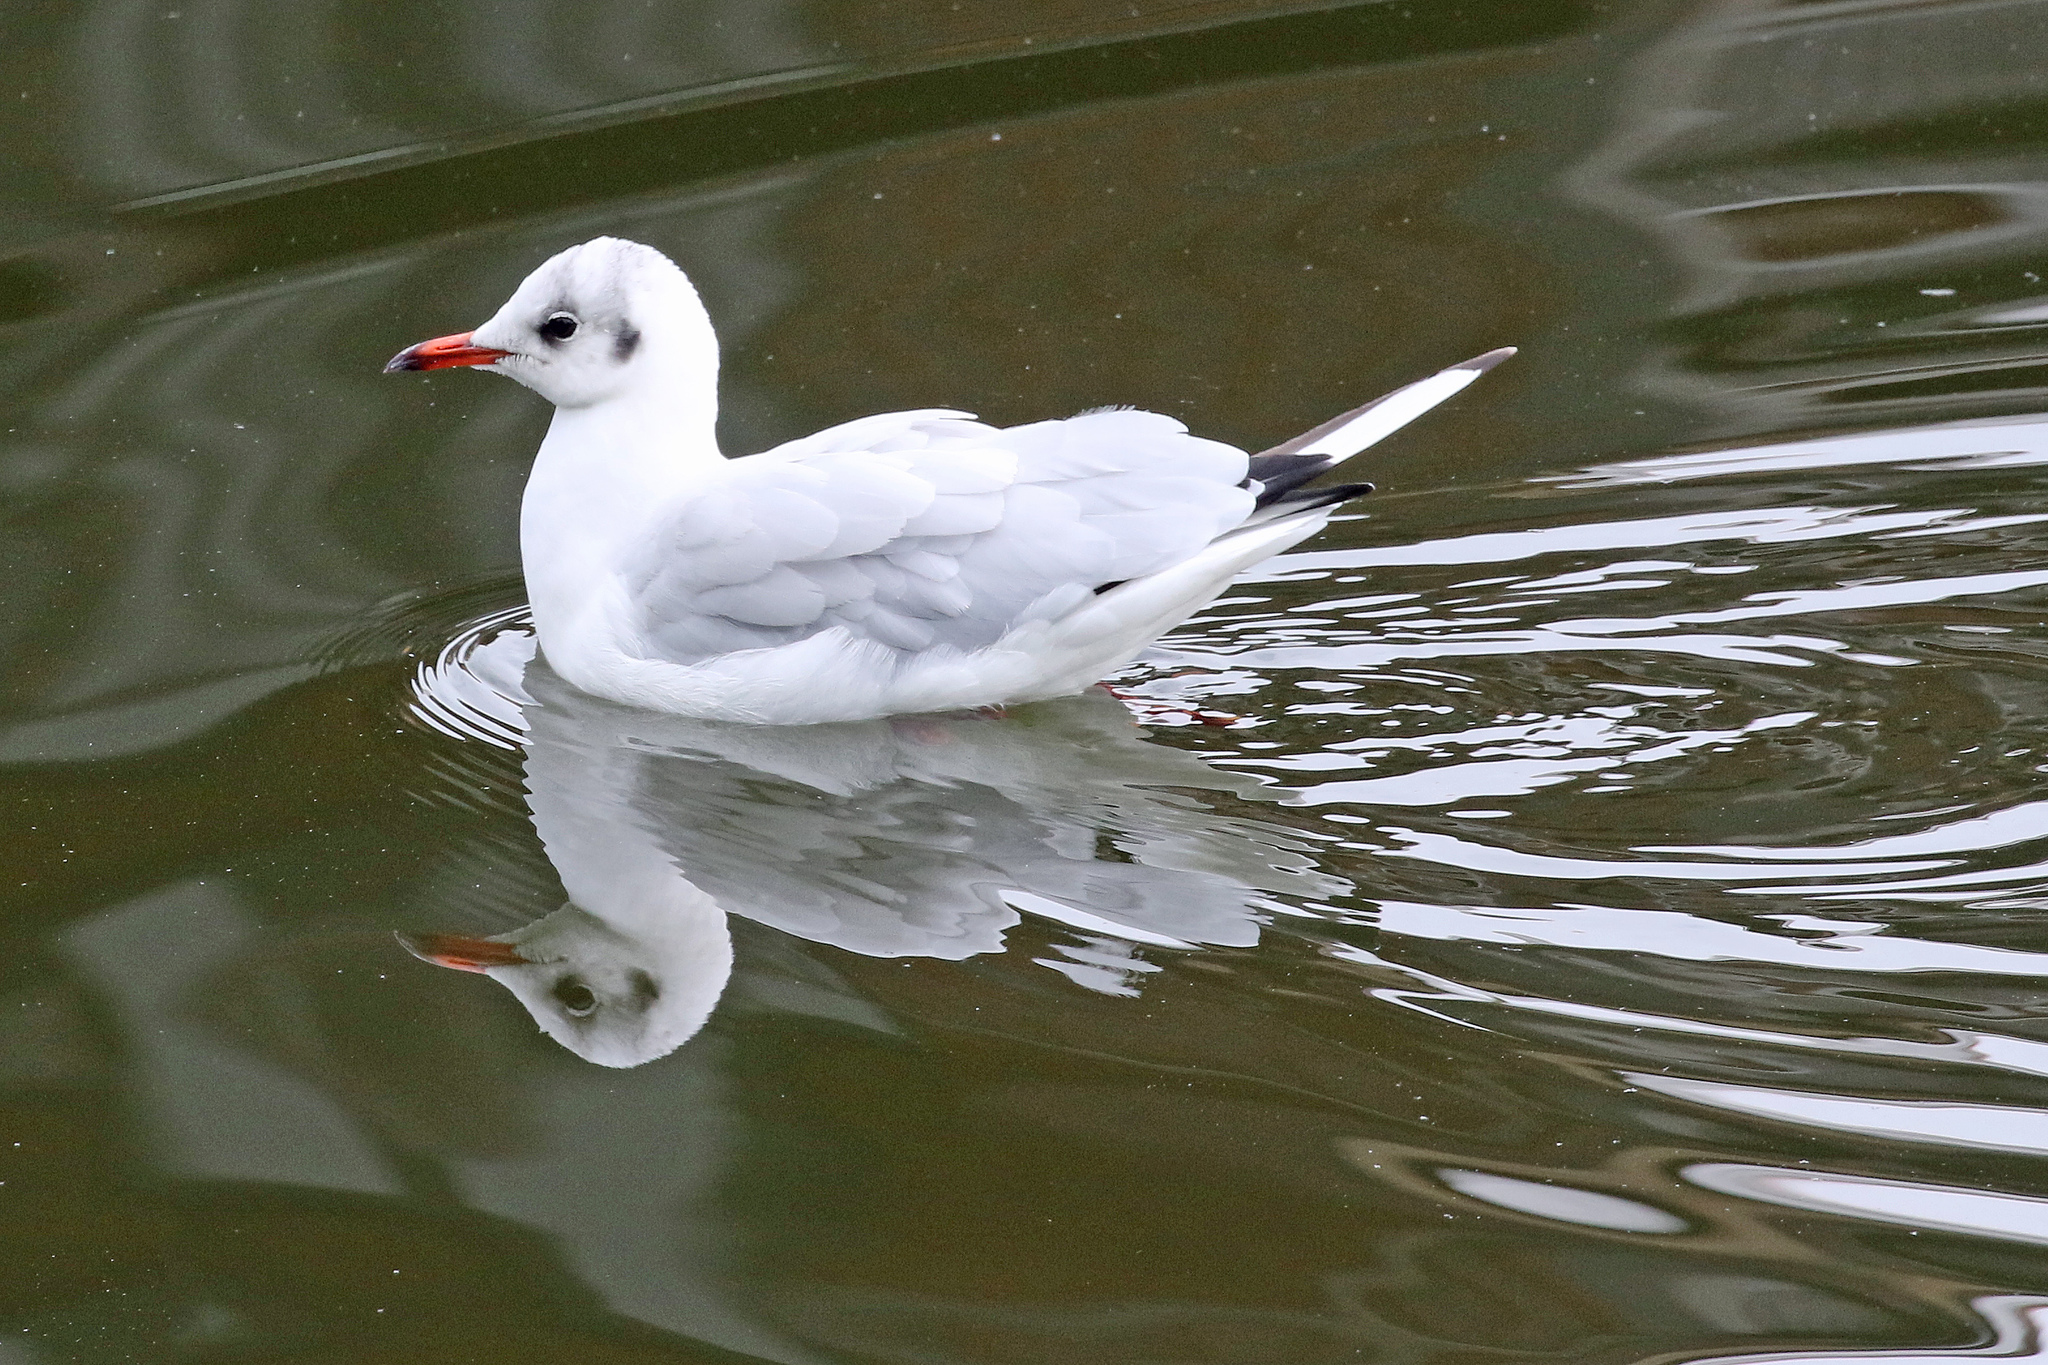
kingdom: Animalia
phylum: Chordata
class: Aves
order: Charadriiformes
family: Laridae
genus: Chroicocephalus
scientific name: Chroicocephalus ridibundus
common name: Black-headed gull
